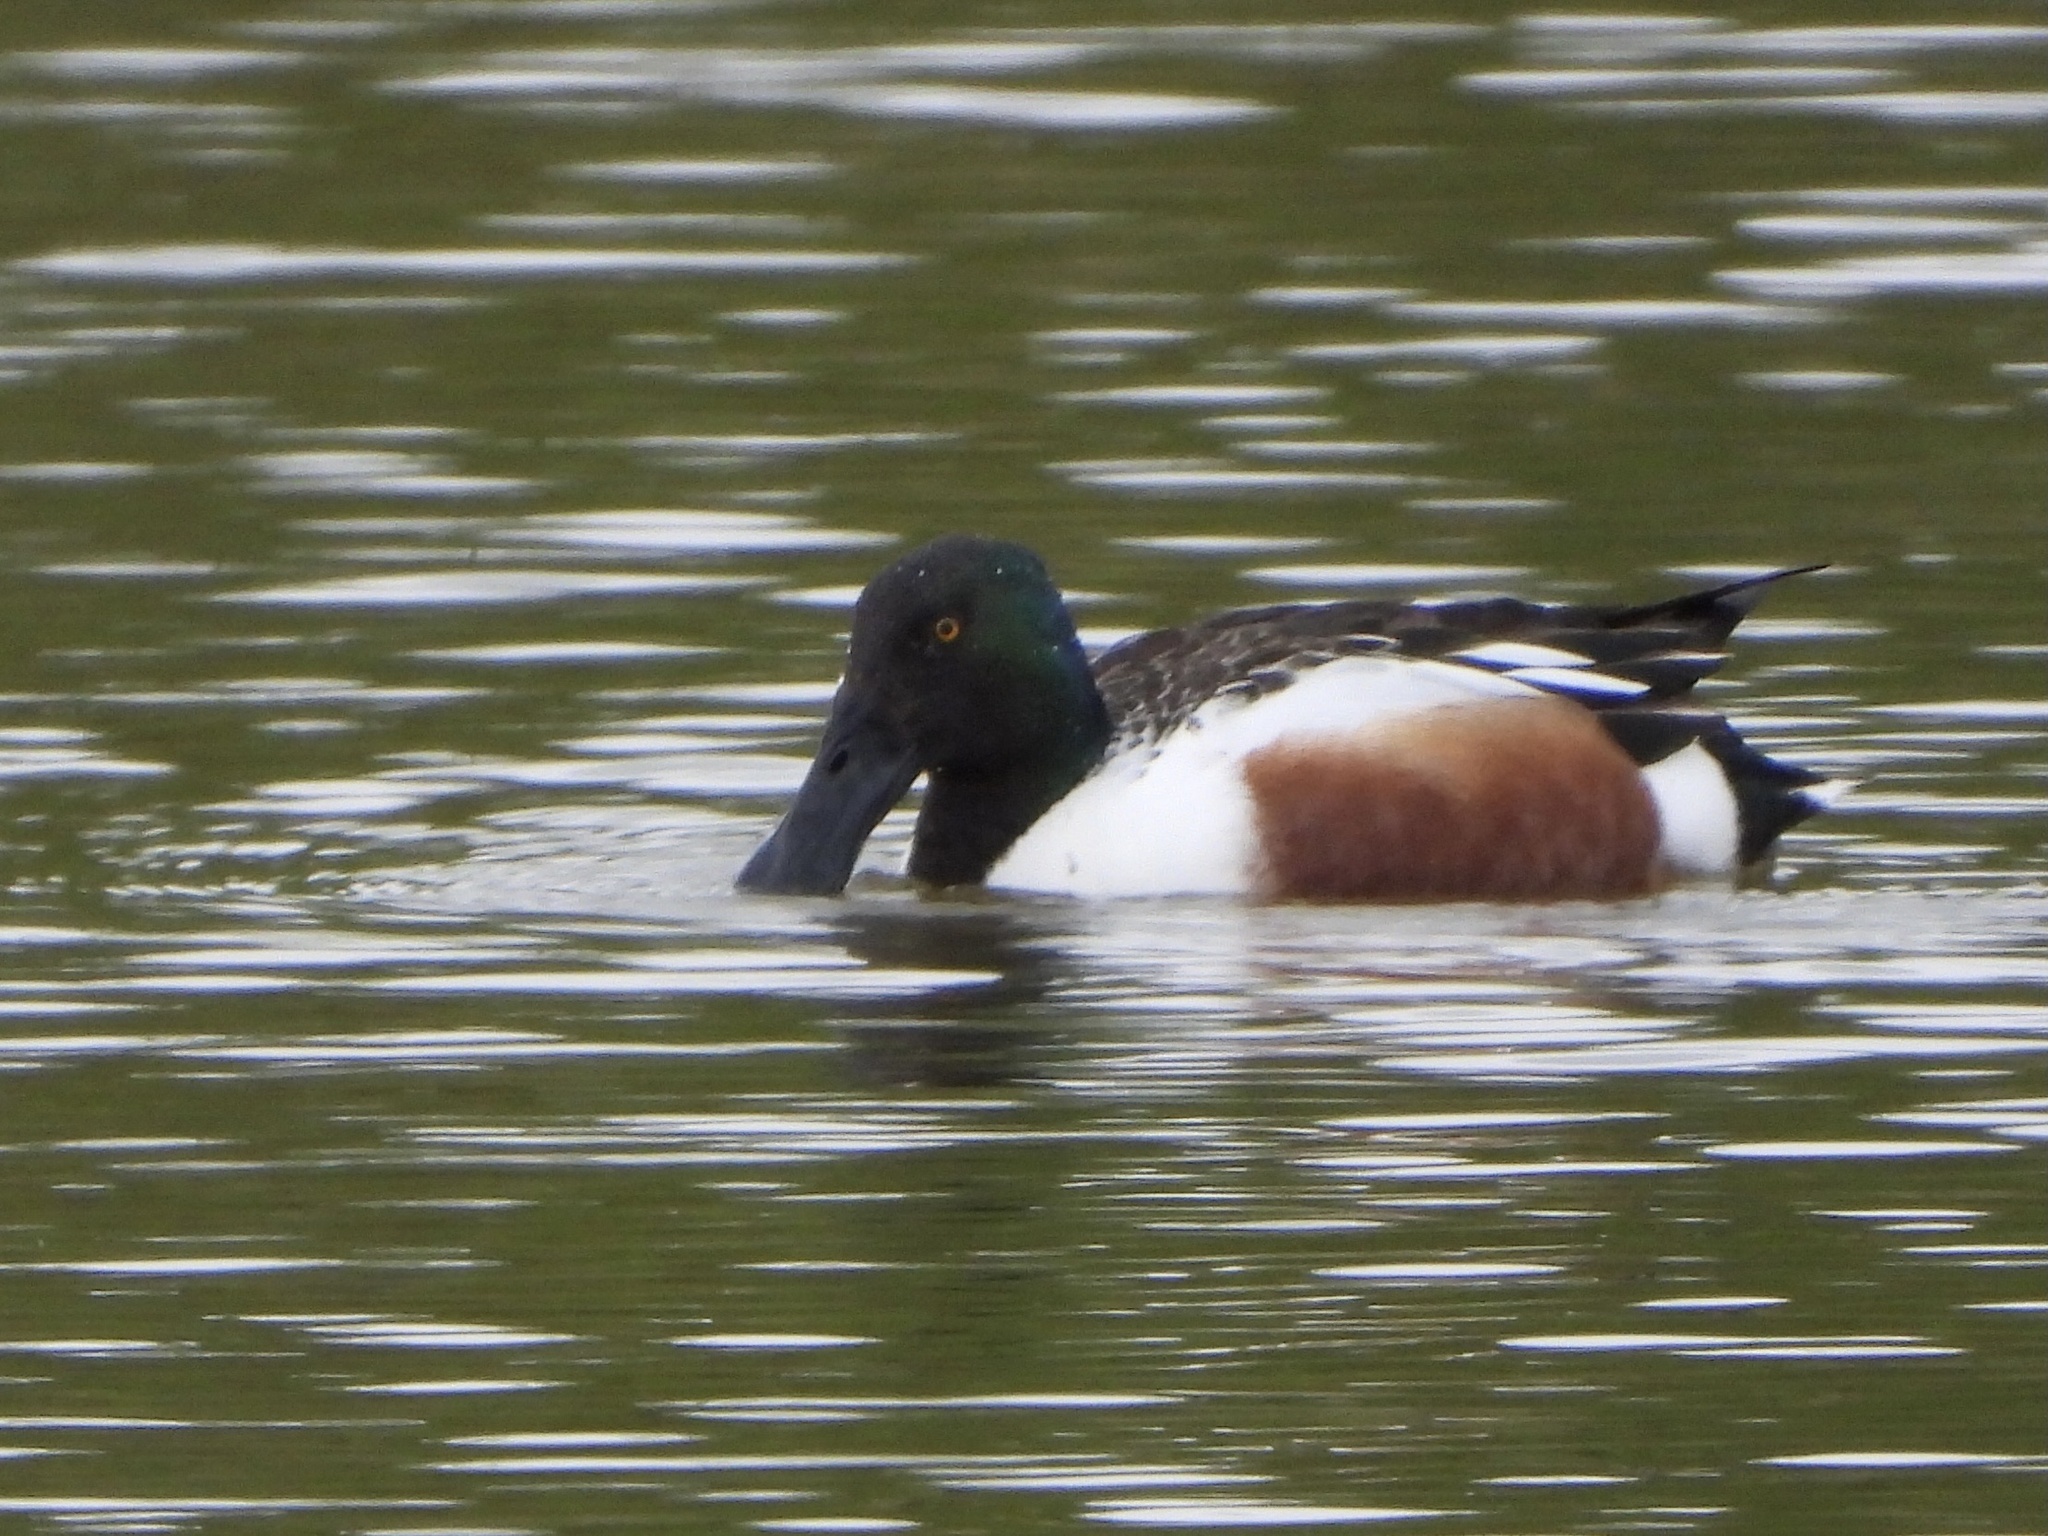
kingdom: Animalia
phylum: Chordata
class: Aves
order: Anseriformes
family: Anatidae
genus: Spatula
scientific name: Spatula clypeata
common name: Northern shoveler
